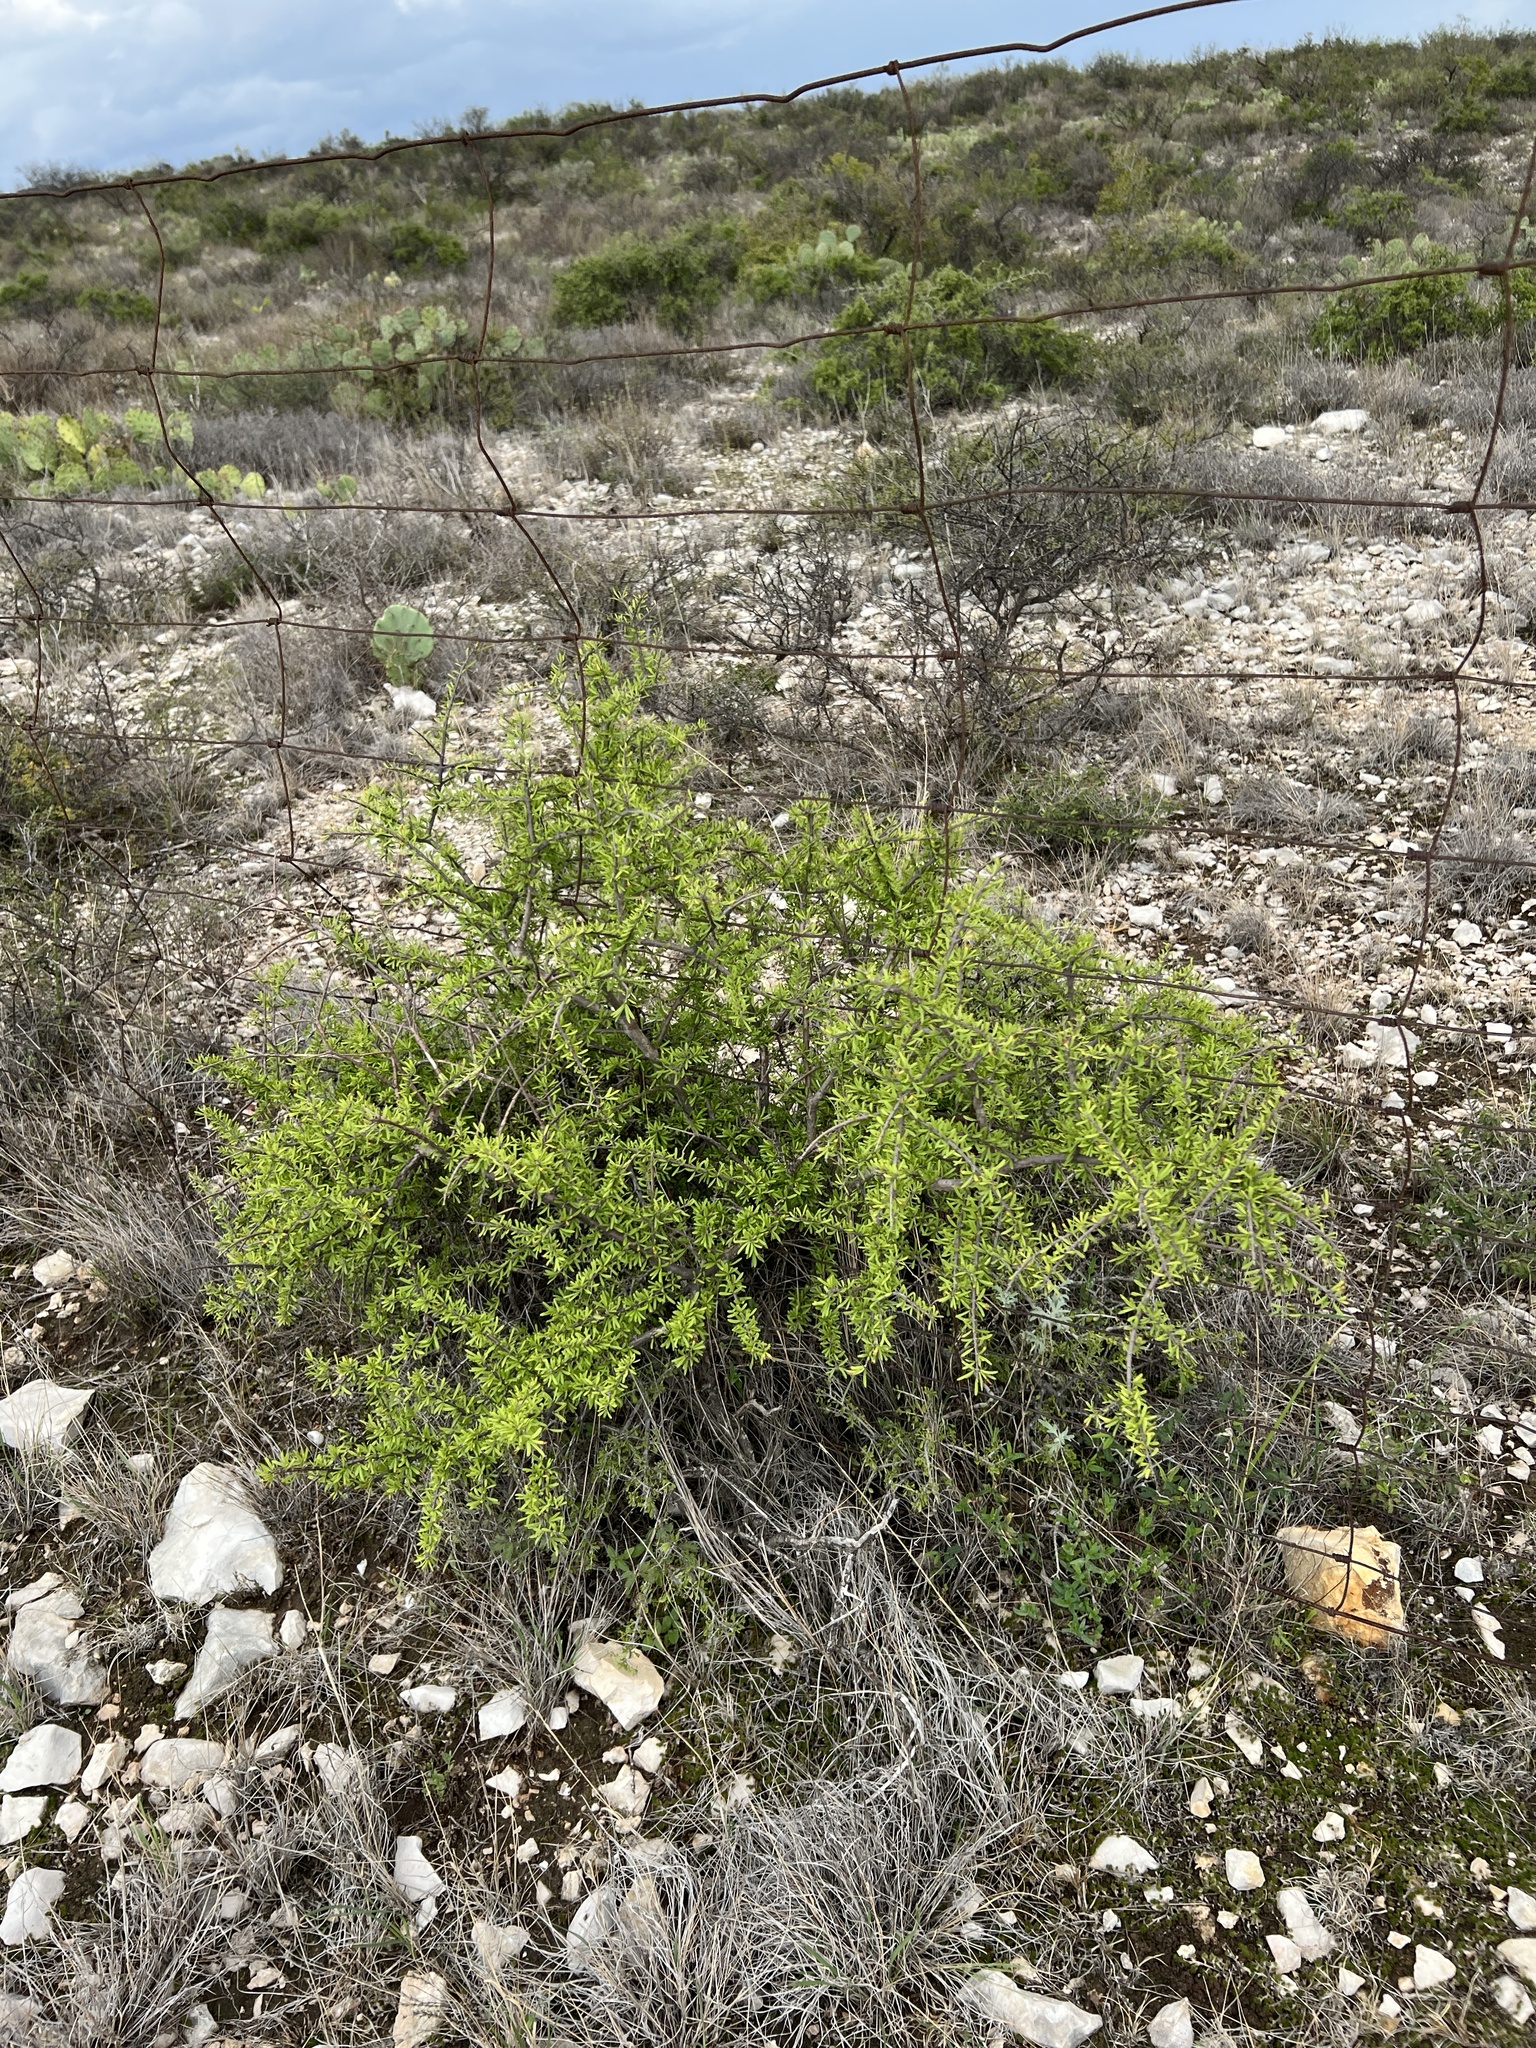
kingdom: Plantae
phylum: Tracheophyta
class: Magnoliopsida
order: Lamiales
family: Oleaceae
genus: Forestiera
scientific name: Forestiera angustifolia
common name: Elbowbush
